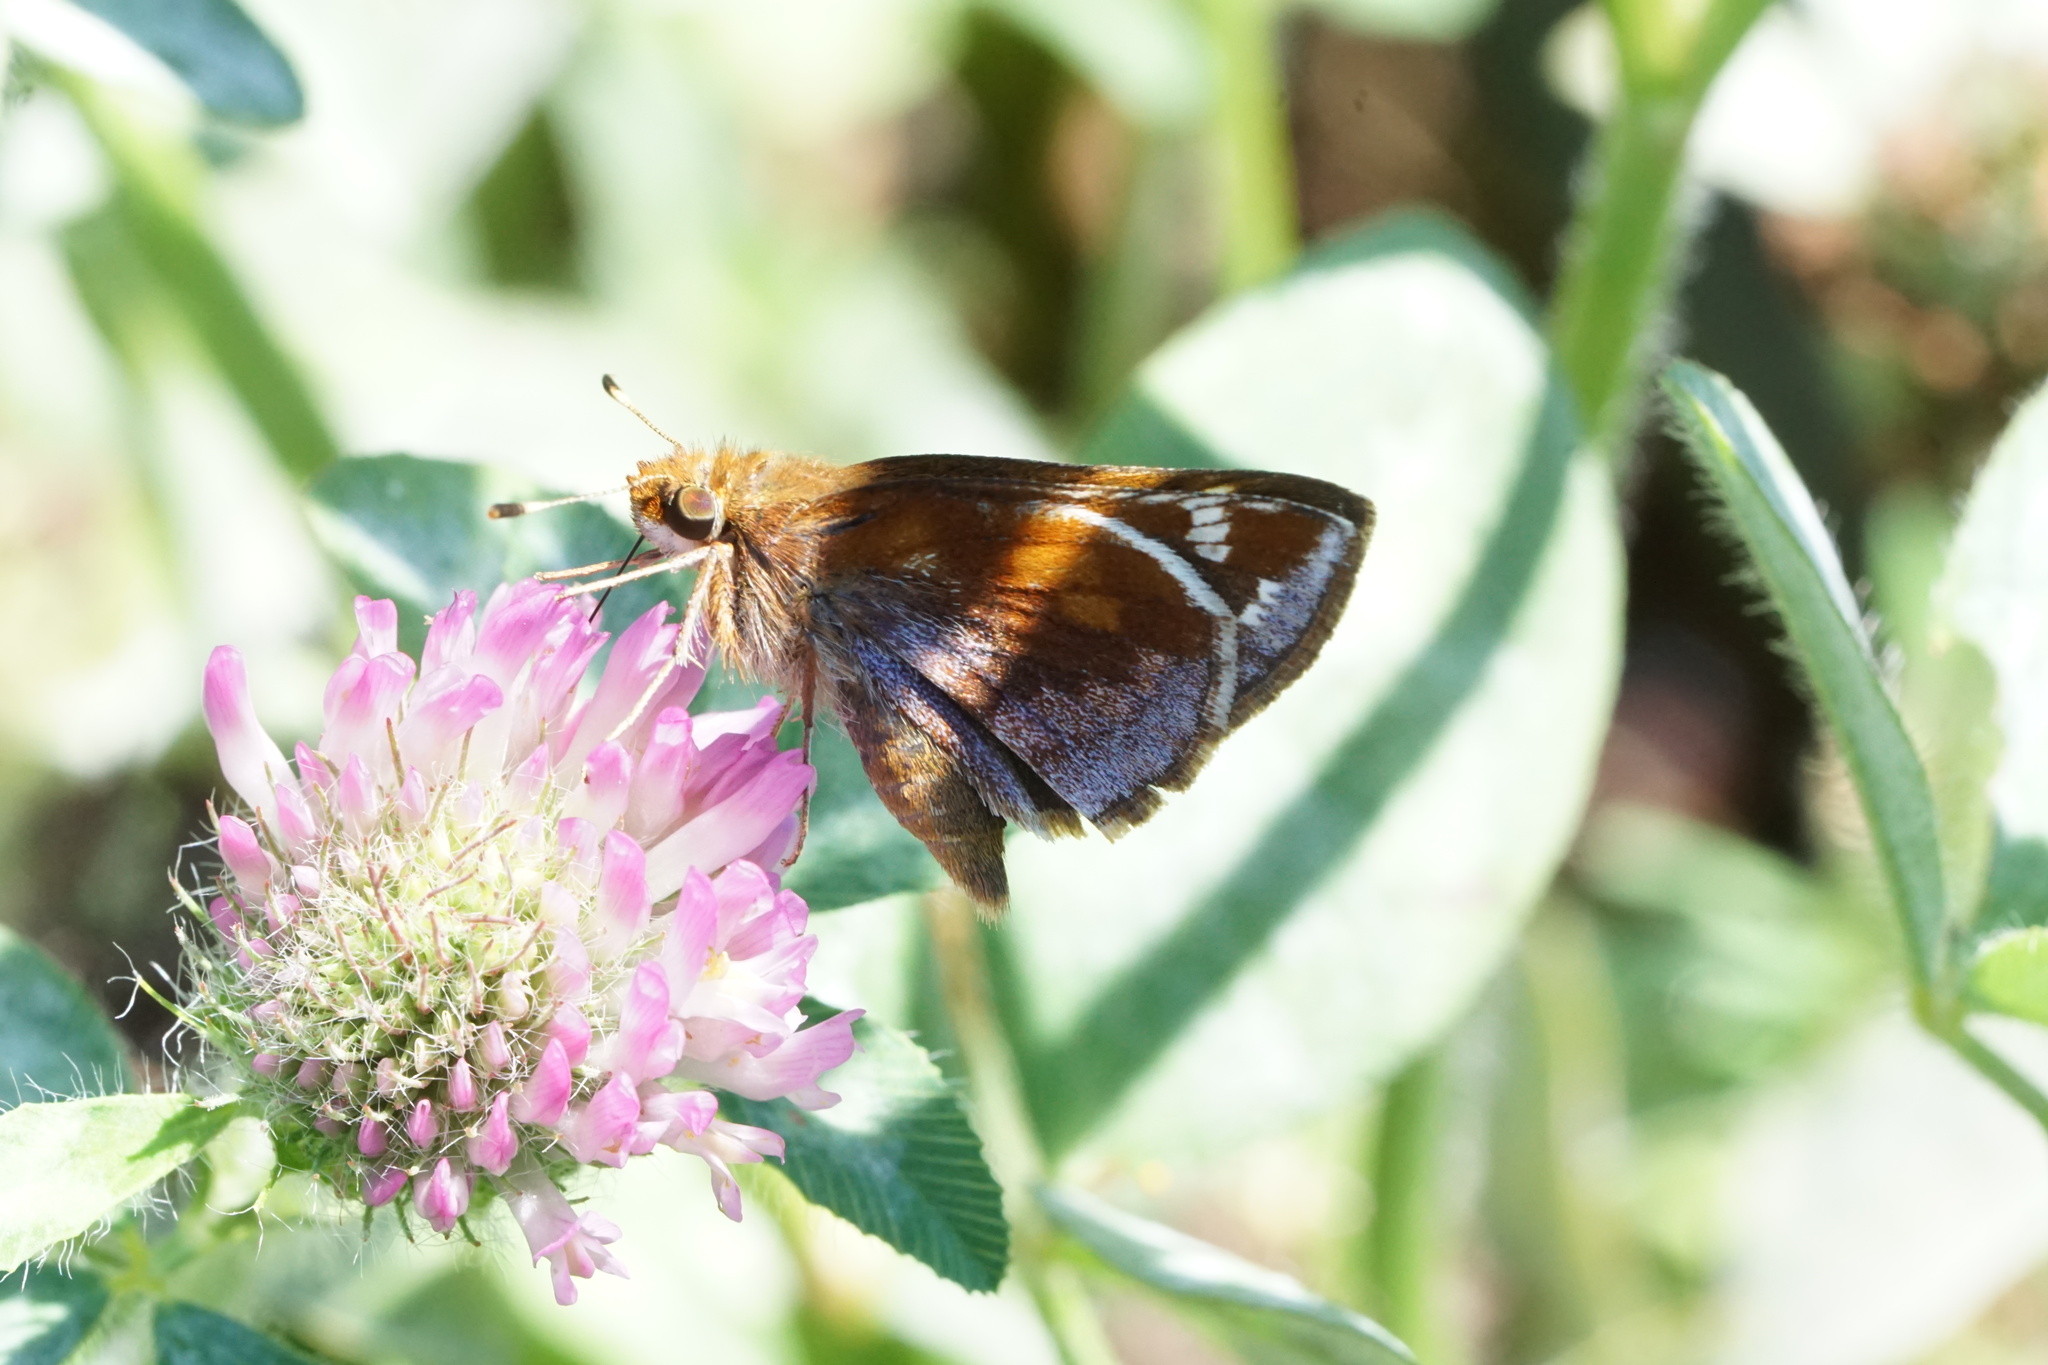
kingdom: Animalia
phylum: Arthropoda
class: Insecta
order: Lepidoptera
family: Hesperiidae
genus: Lon
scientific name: Lon zabulon
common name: Zabulon skipper
